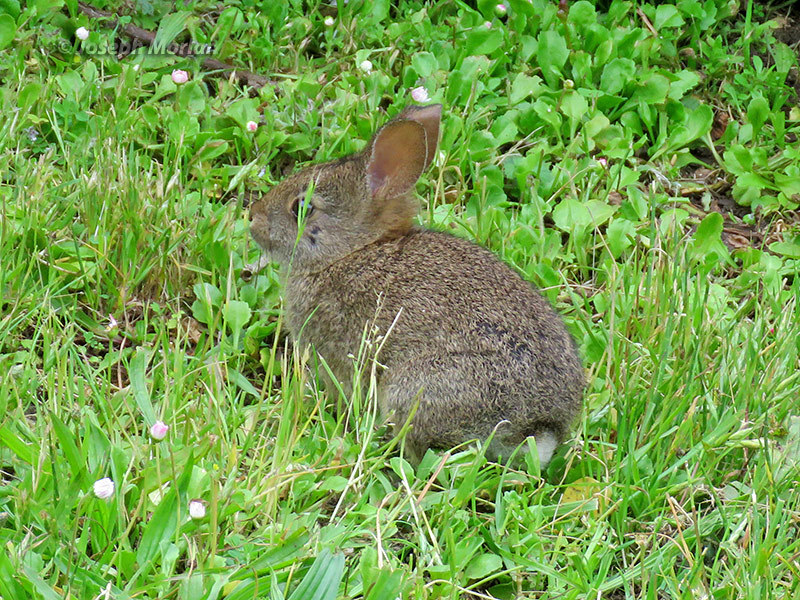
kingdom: Animalia
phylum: Chordata
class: Mammalia
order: Lagomorpha
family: Leporidae
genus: Sylvilagus
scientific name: Sylvilagus bachmani
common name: Brush rabbit
